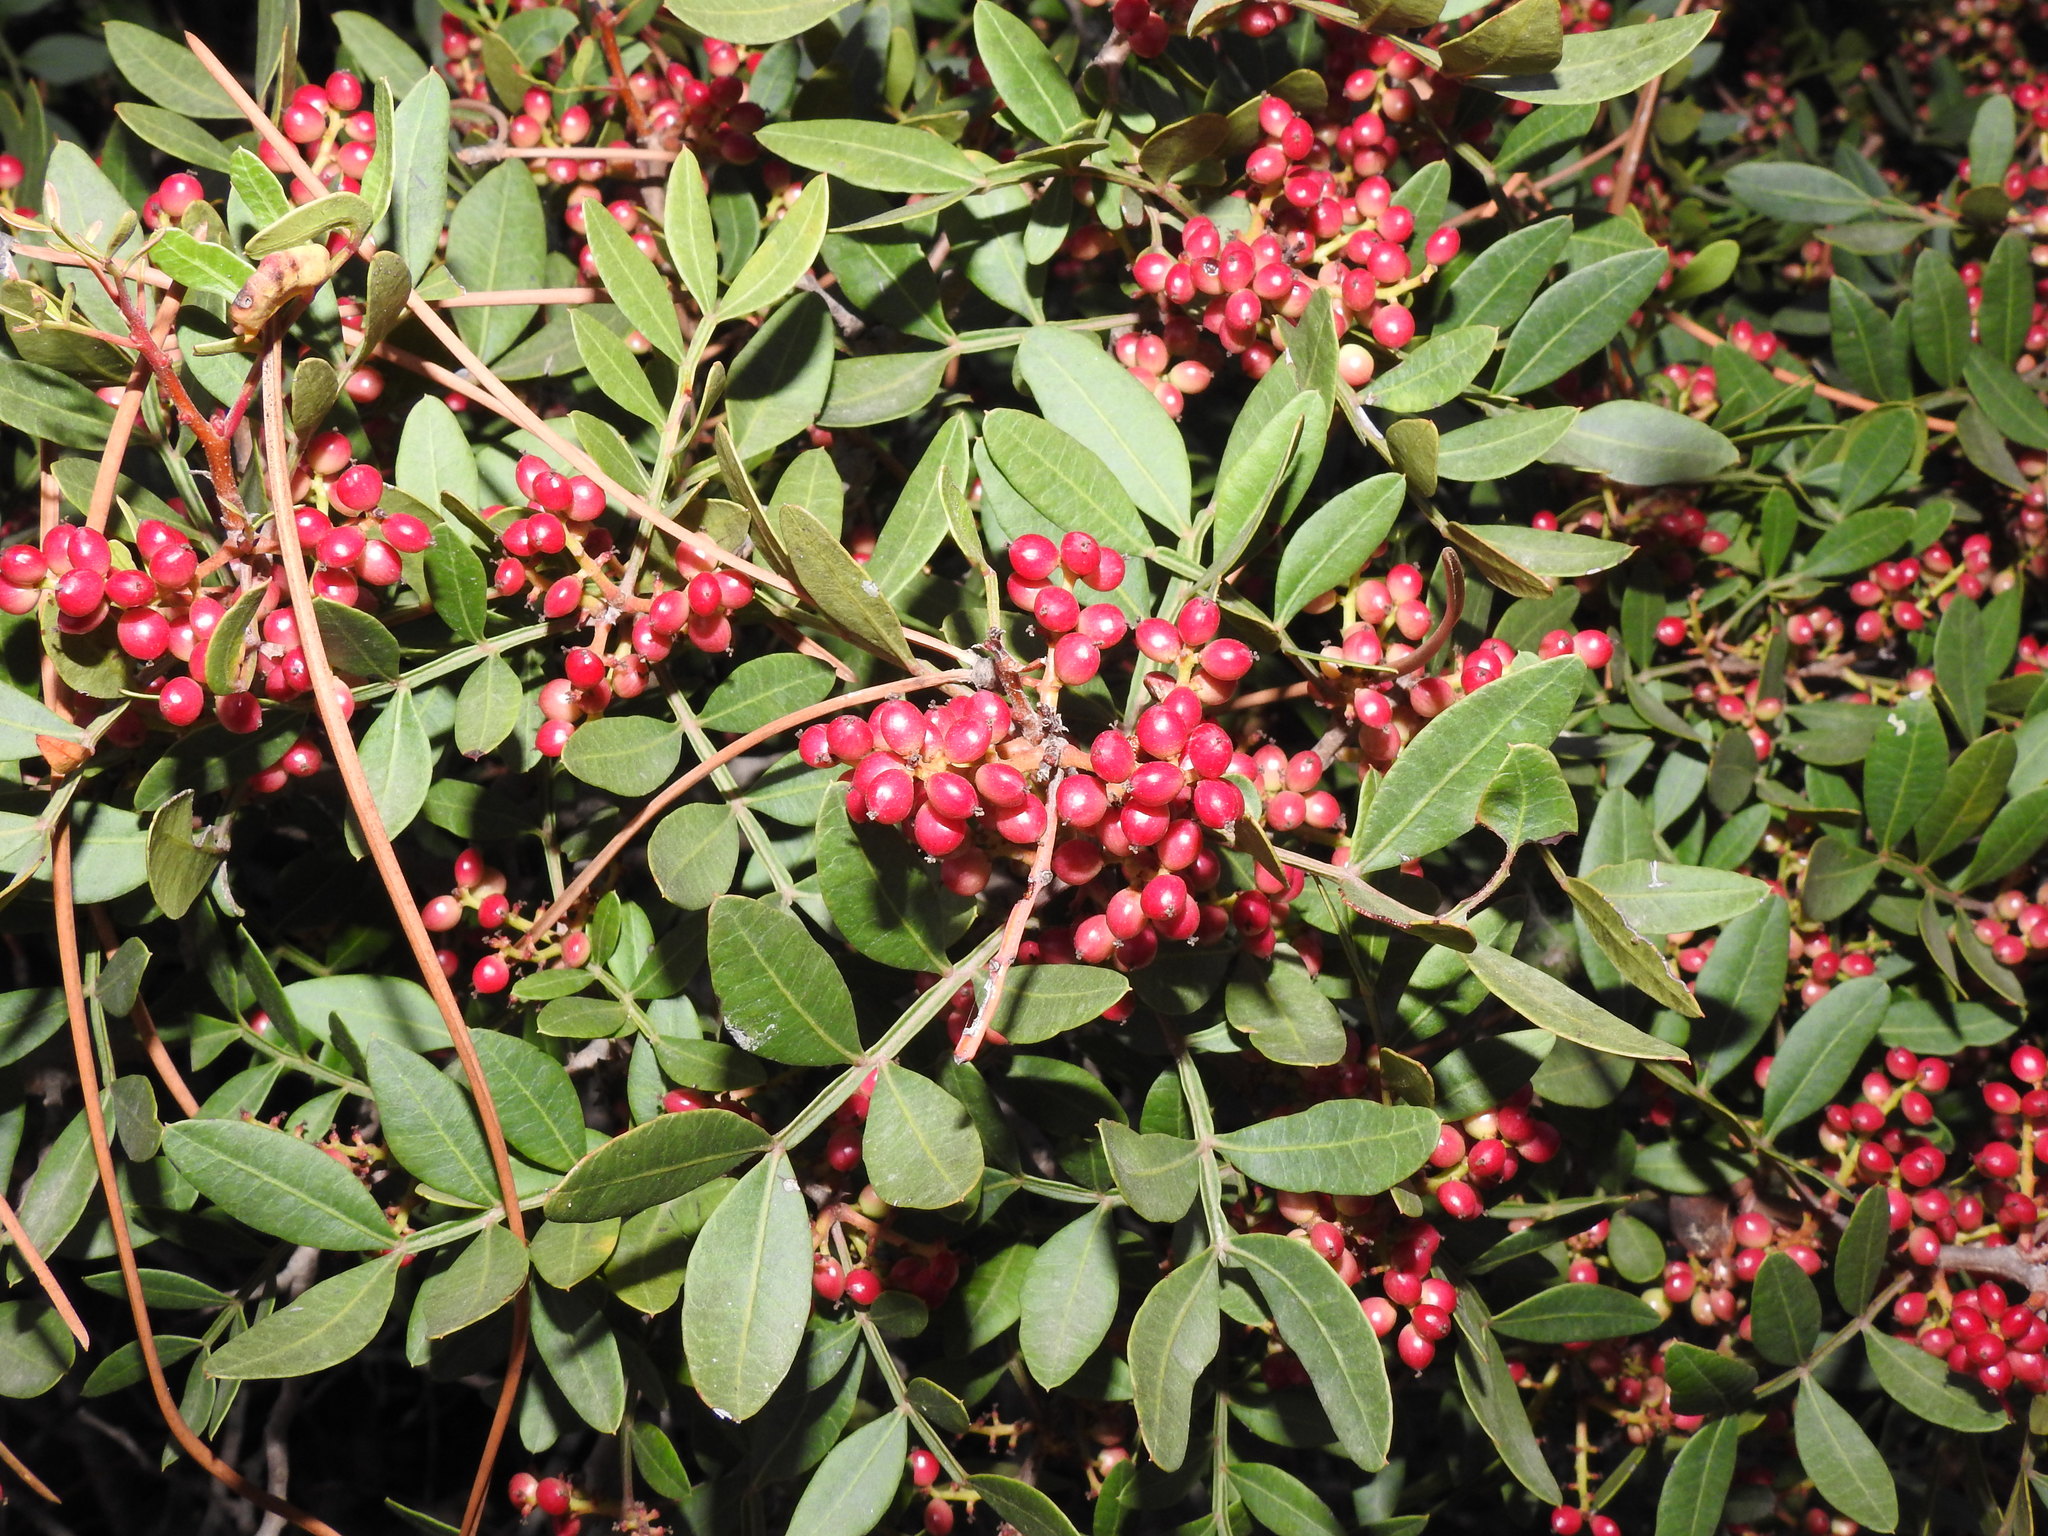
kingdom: Plantae
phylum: Tracheophyta
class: Magnoliopsida
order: Sapindales
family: Anacardiaceae
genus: Pistacia
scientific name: Pistacia lentiscus
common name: Lentisk
